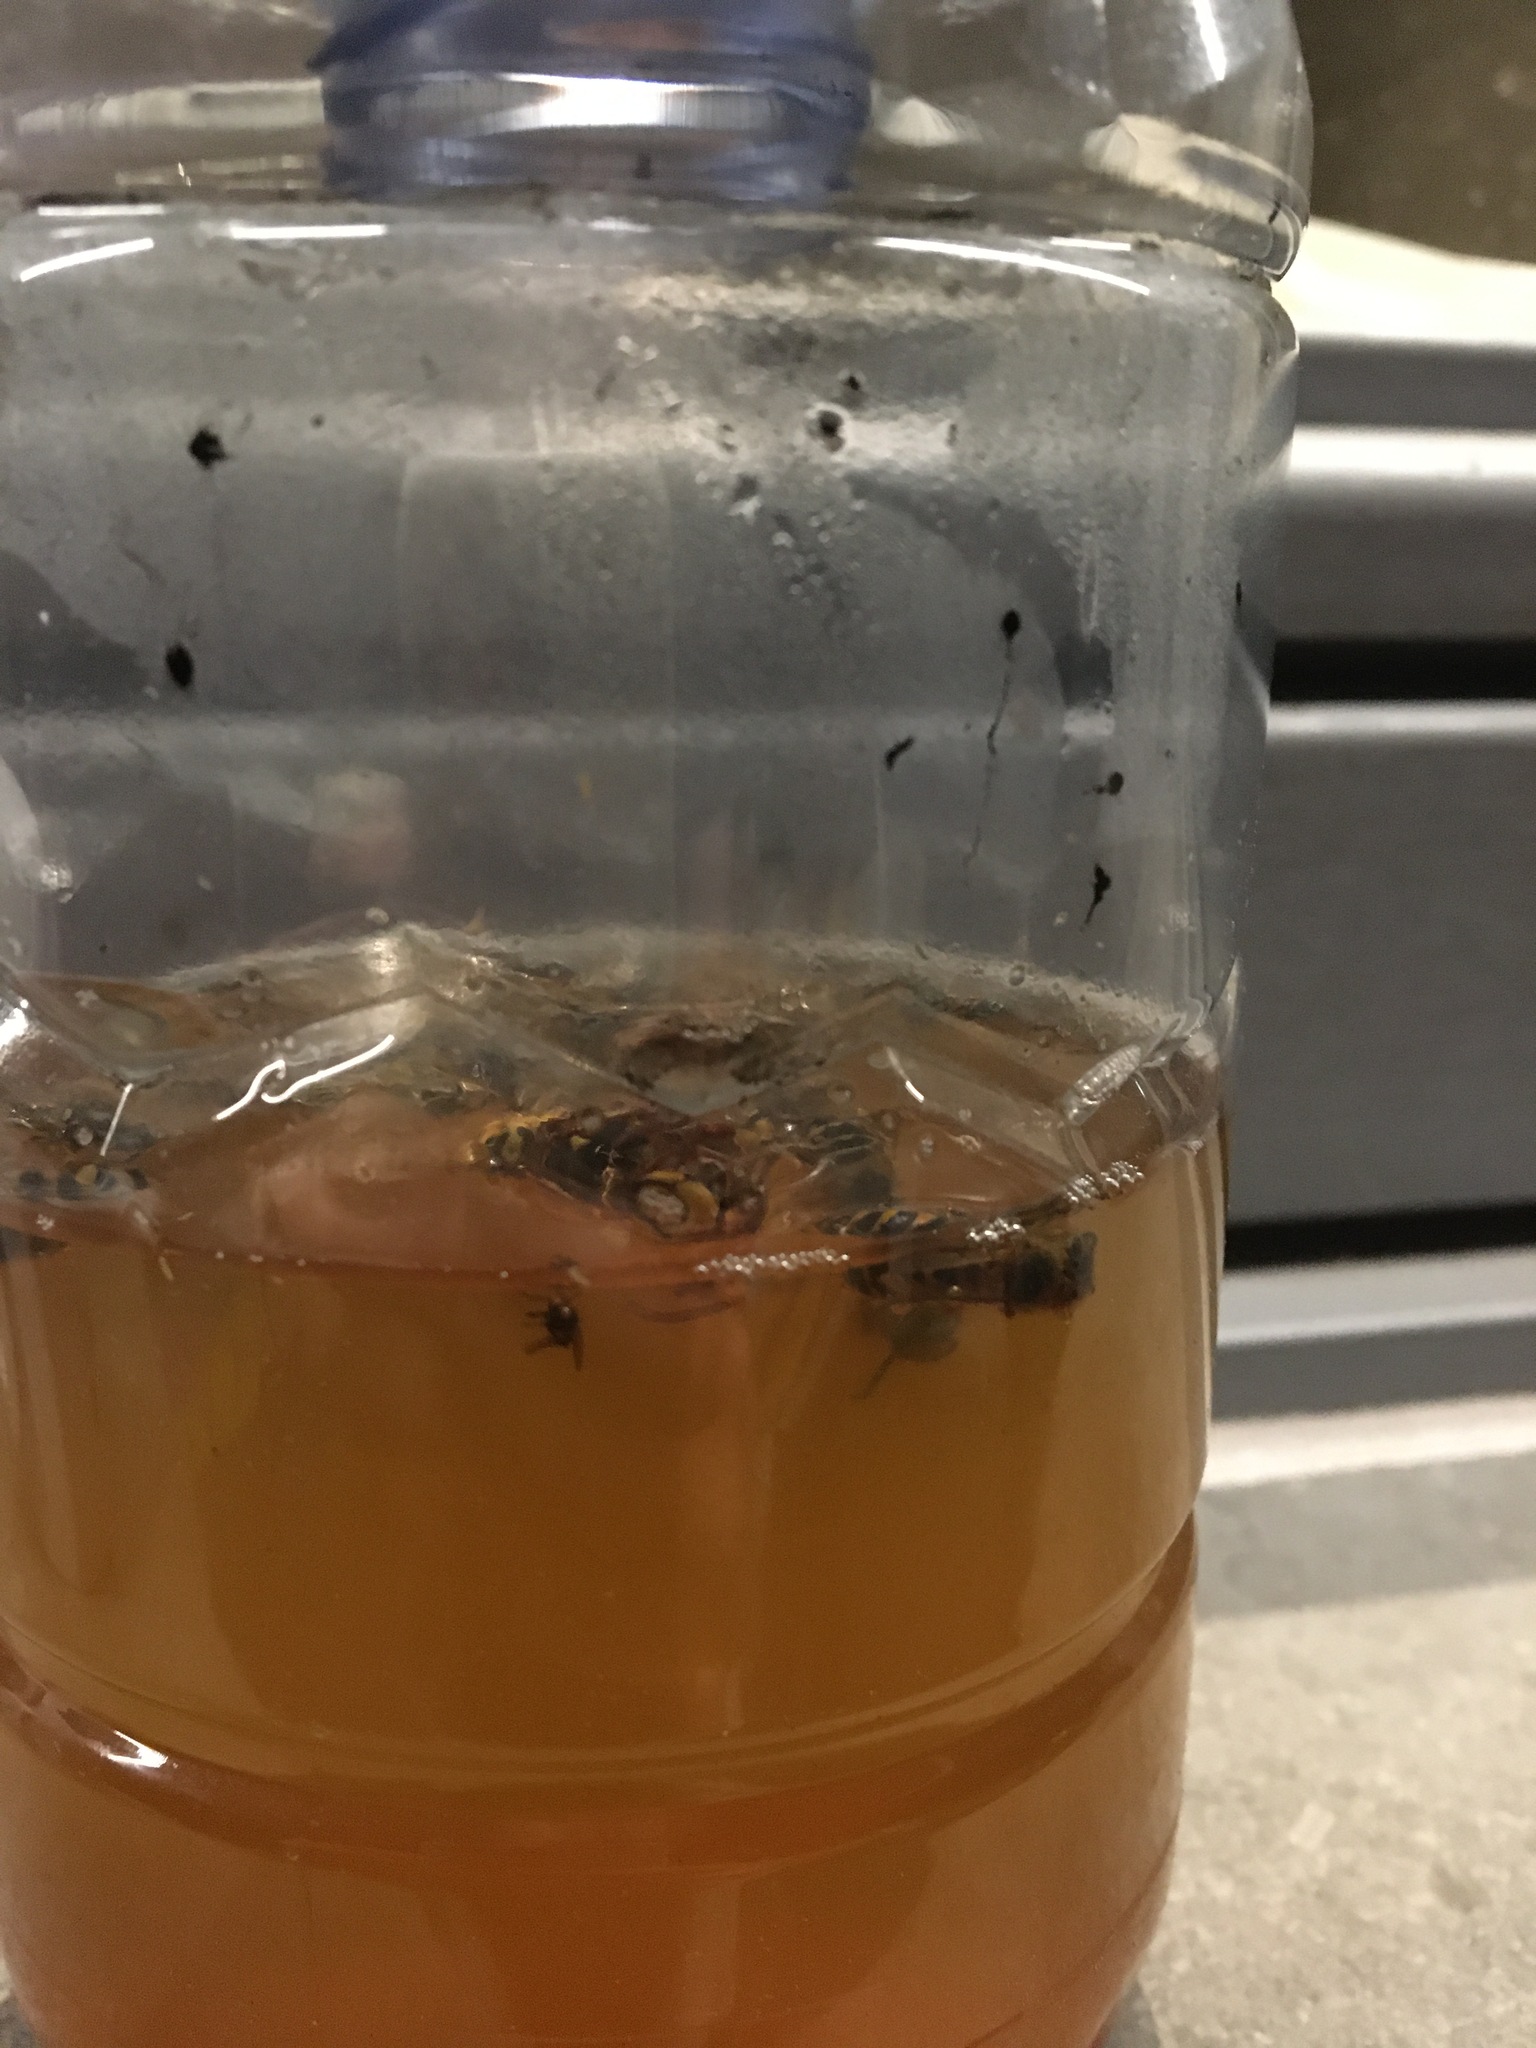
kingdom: Animalia
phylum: Arthropoda
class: Insecta
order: Hymenoptera
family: Vespidae
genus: Vespa
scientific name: Vespa crabro
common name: Hornet
